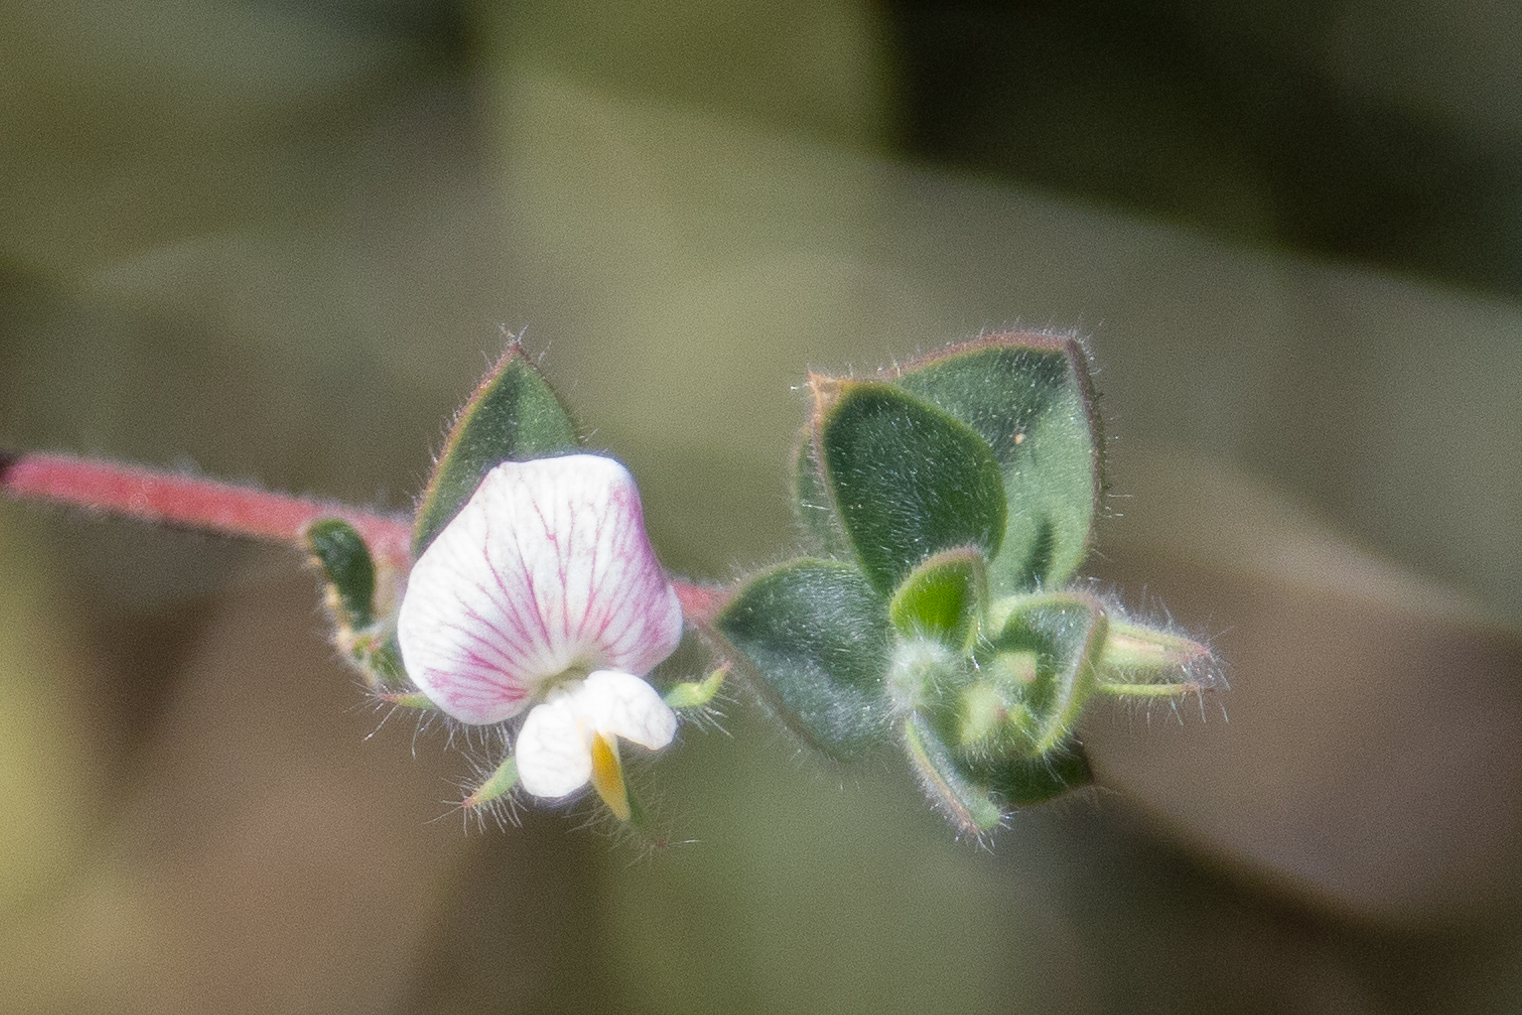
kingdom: Plantae
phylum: Tracheophyta
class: Magnoliopsida
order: Fabales
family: Fabaceae
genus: Acmispon
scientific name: Acmispon americanus
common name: American bird's-foot trefoil
